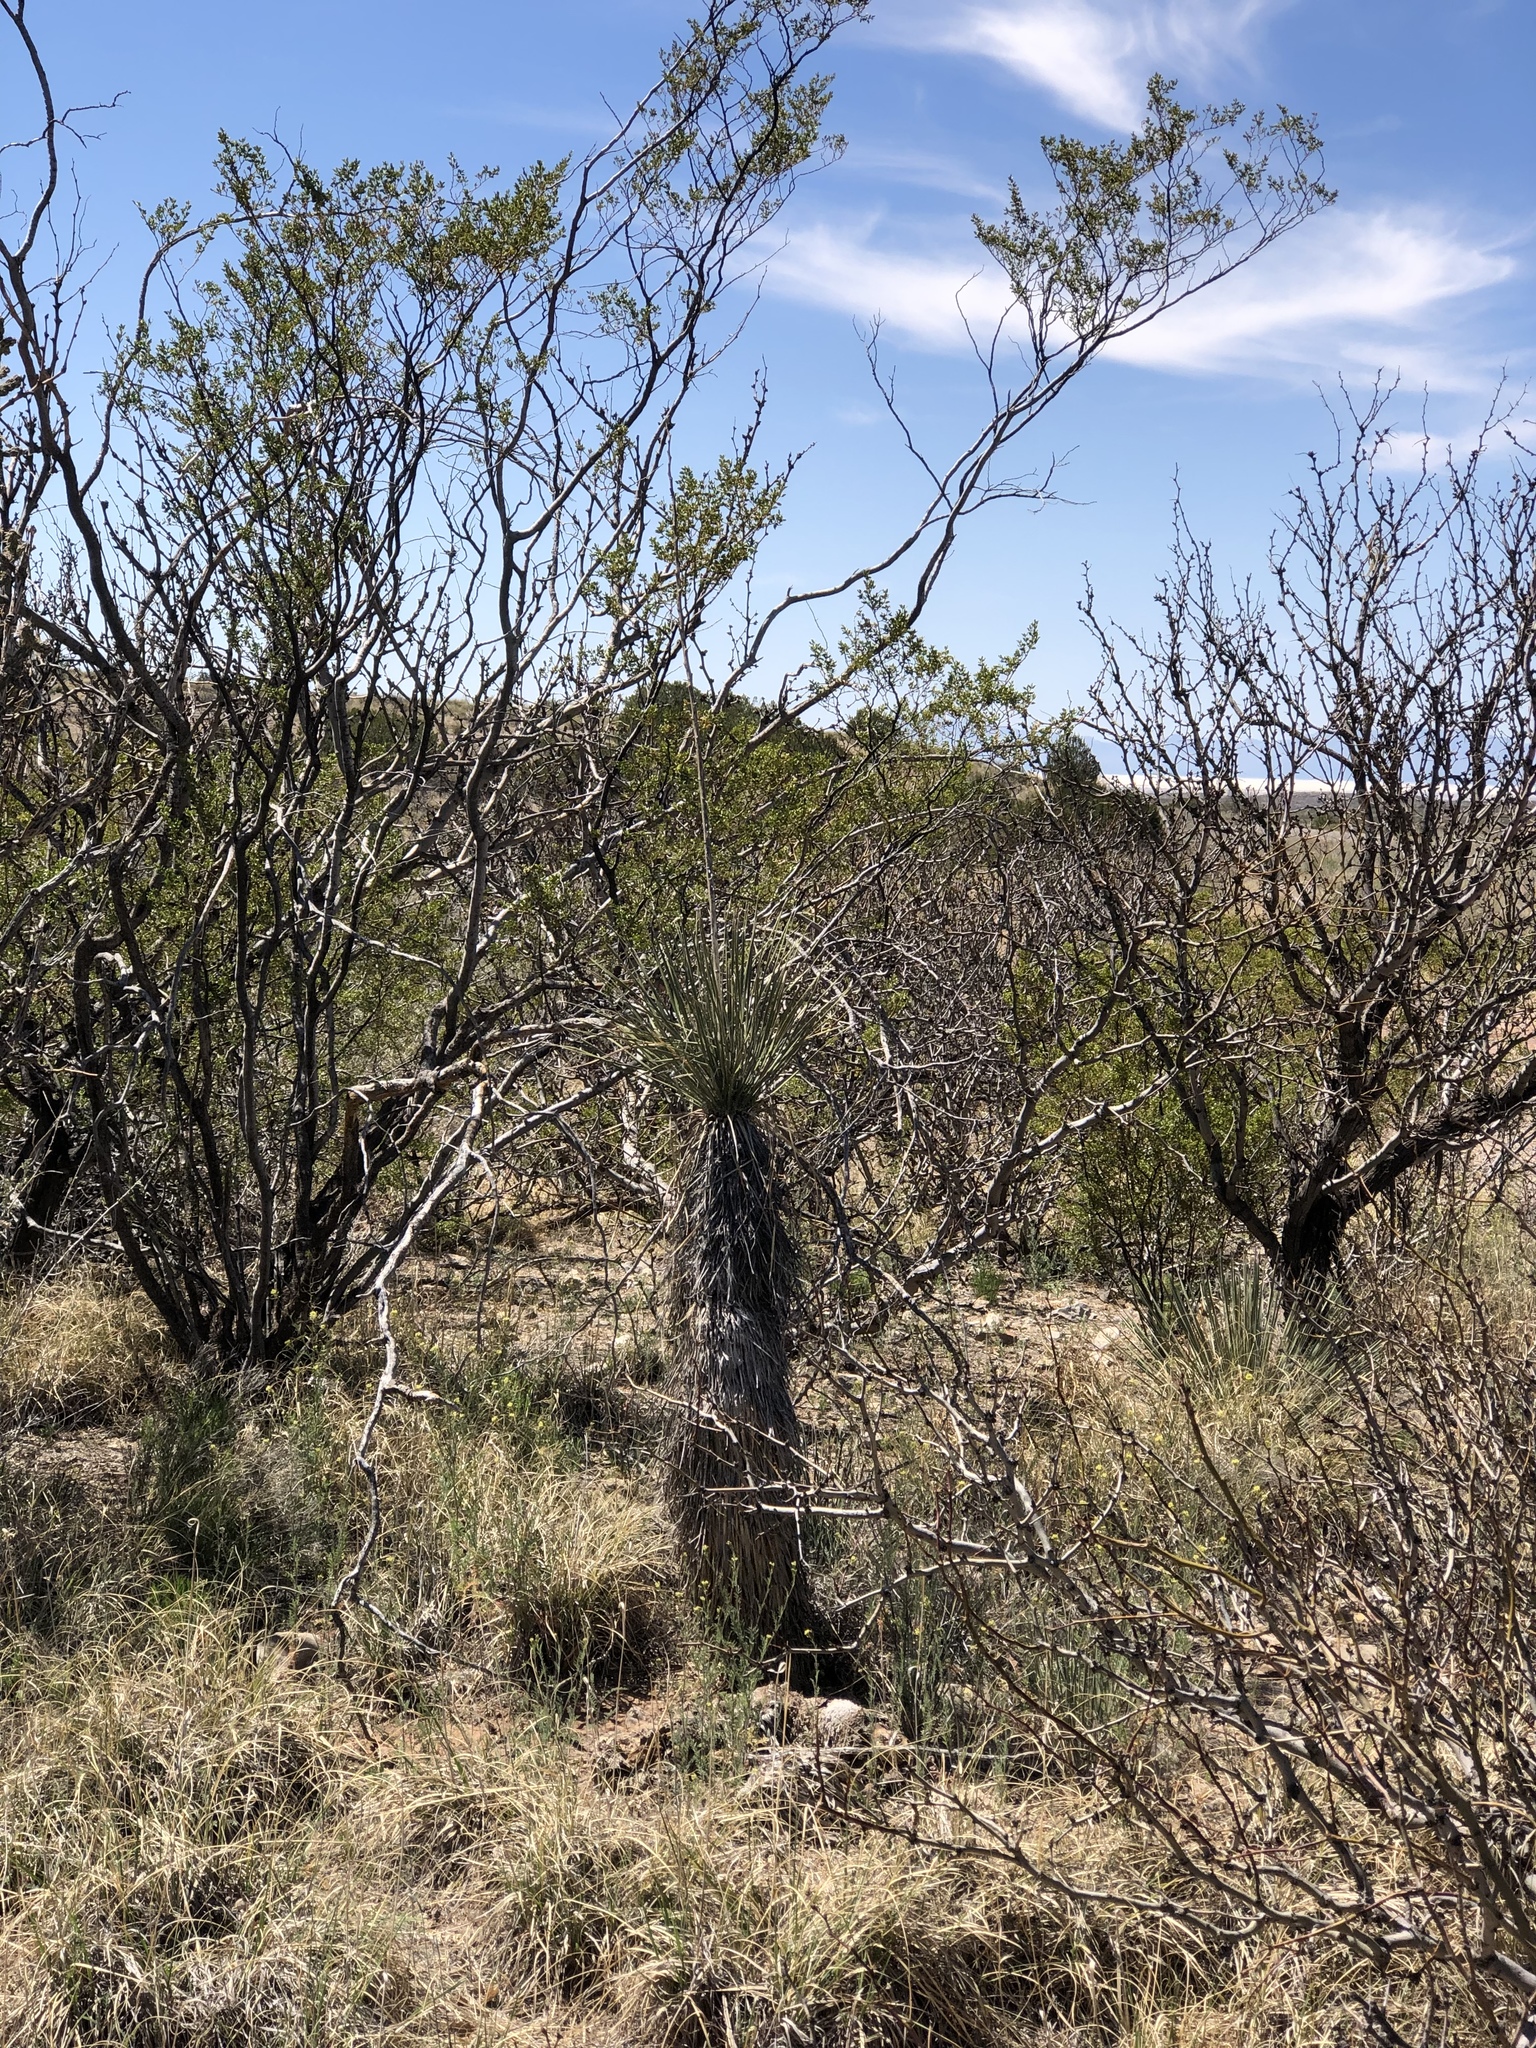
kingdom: Plantae
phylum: Tracheophyta
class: Liliopsida
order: Asparagales
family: Asparagaceae
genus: Yucca
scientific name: Yucca elata
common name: Palmella
